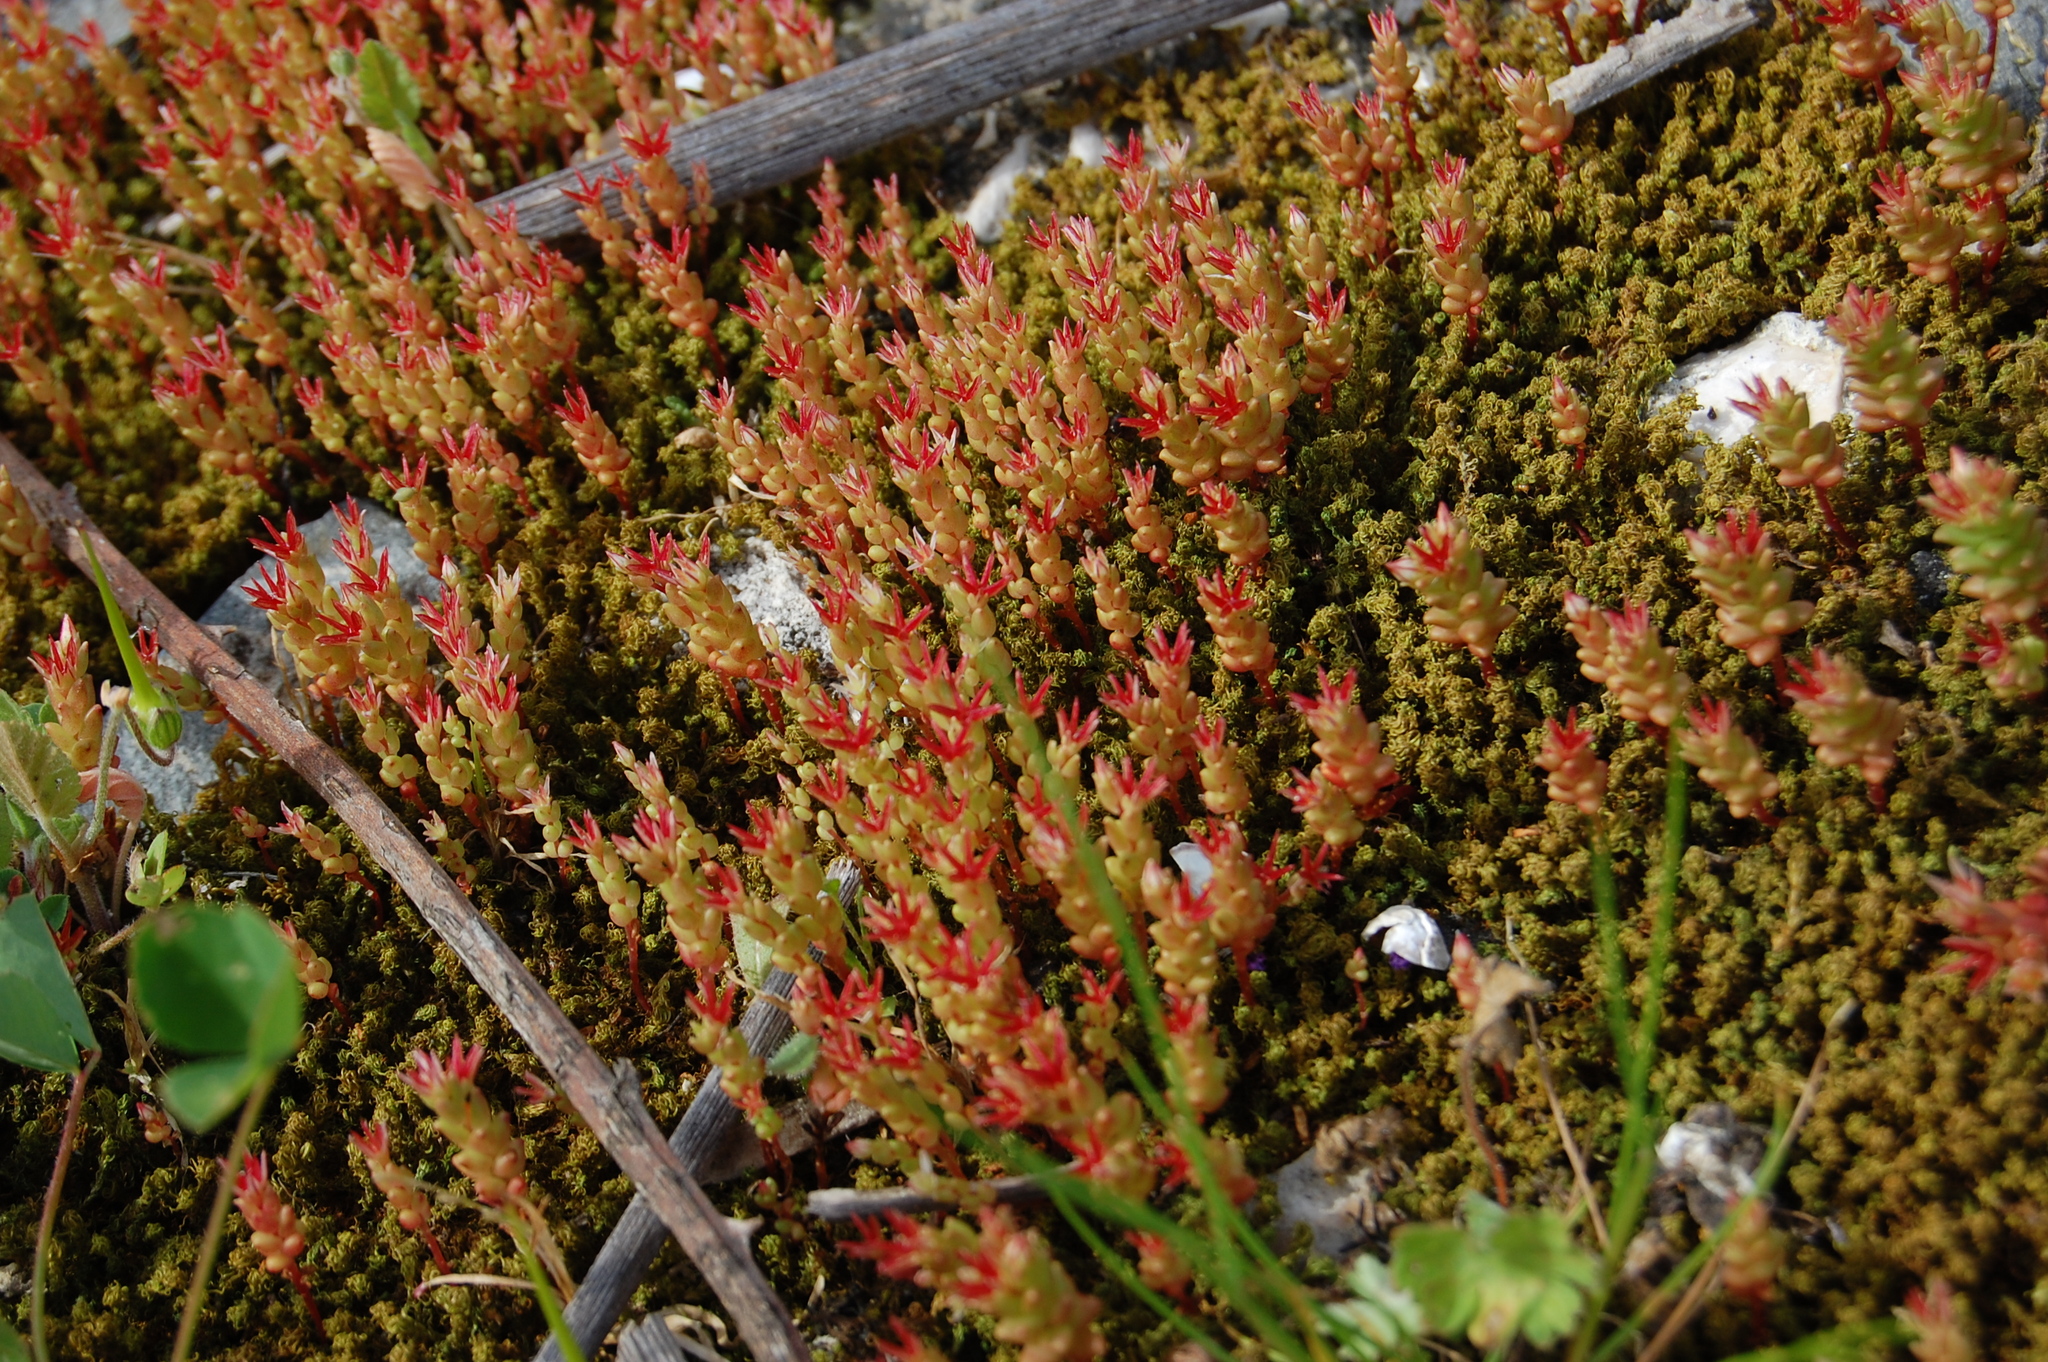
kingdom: Plantae
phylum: Tracheophyta
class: Magnoliopsida
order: Saxifragales
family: Crassulaceae
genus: Sedum
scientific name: Sedum cespitosum
